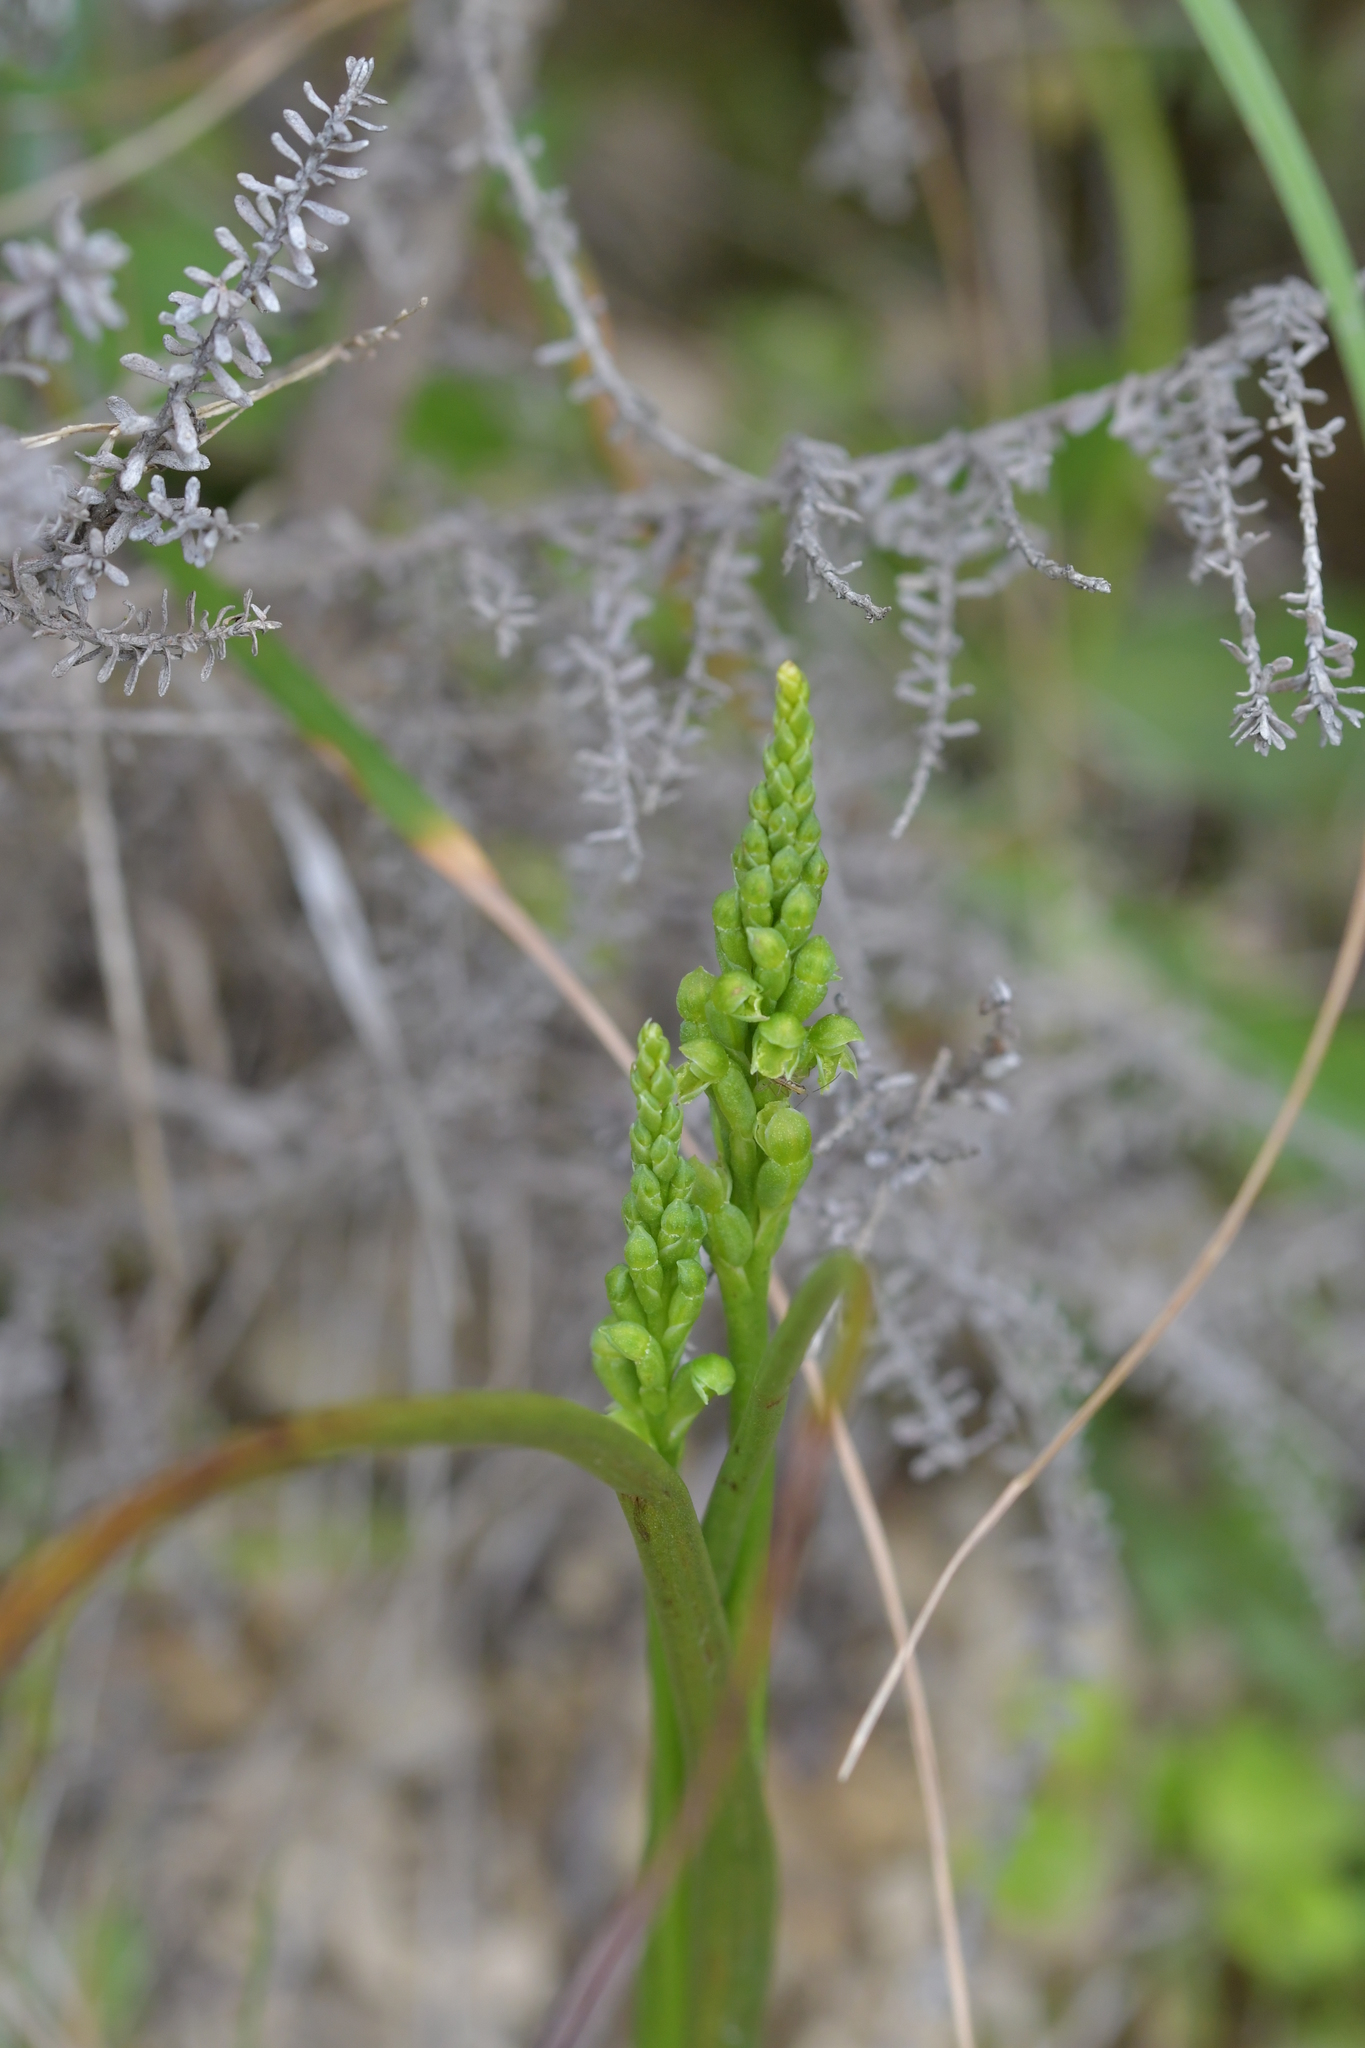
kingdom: Plantae
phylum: Tracheophyta
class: Liliopsida
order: Asparagales
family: Orchidaceae
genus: Microtis
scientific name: Microtis unifolia
